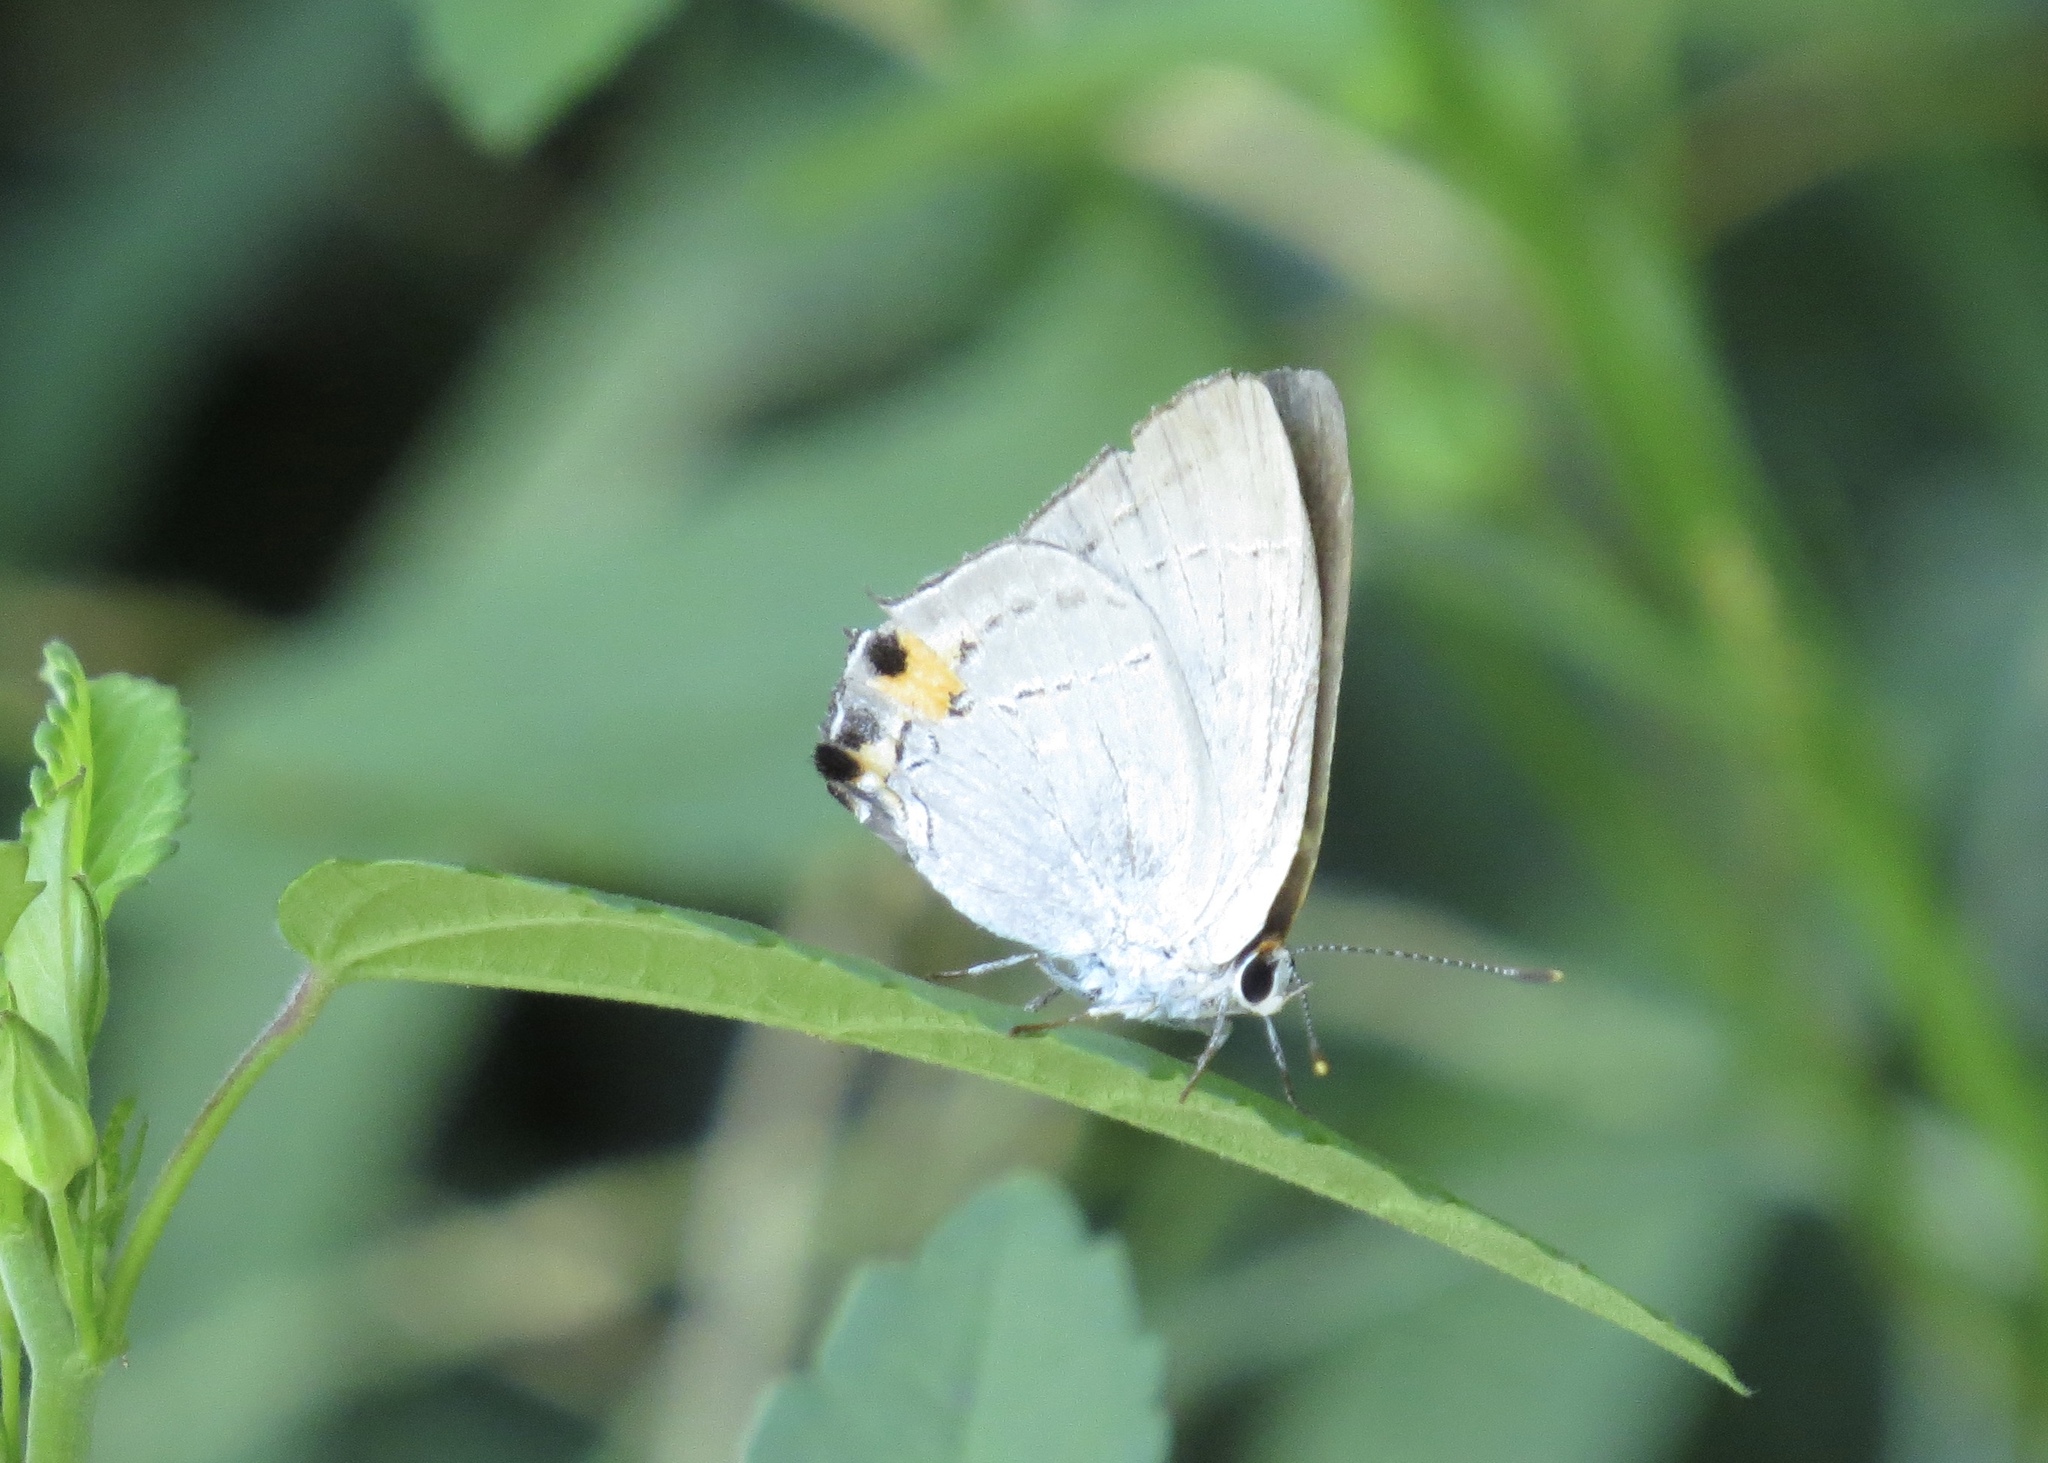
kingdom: Animalia
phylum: Arthropoda
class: Insecta
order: Lepidoptera
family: Lycaenidae
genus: Strymon
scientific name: Strymon melinus
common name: Gray hairstreak
